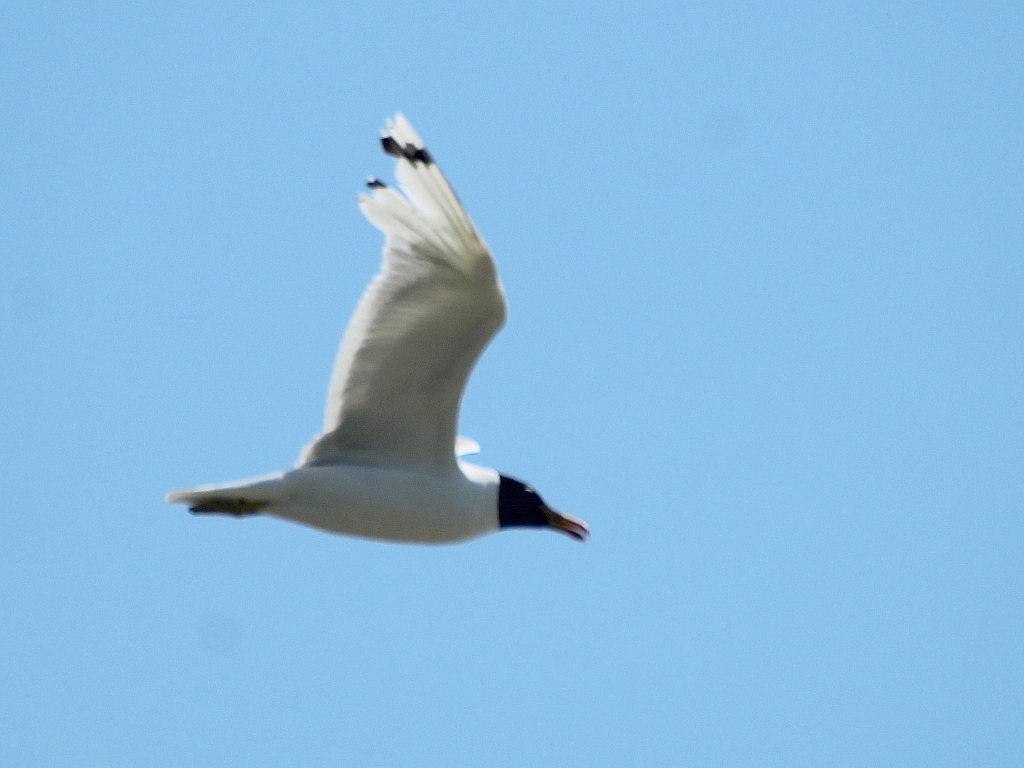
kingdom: Animalia
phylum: Chordata
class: Aves
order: Charadriiformes
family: Laridae
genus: Ichthyaetus
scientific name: Ichthyaetus ichthyaetus
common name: Pallas's gull
